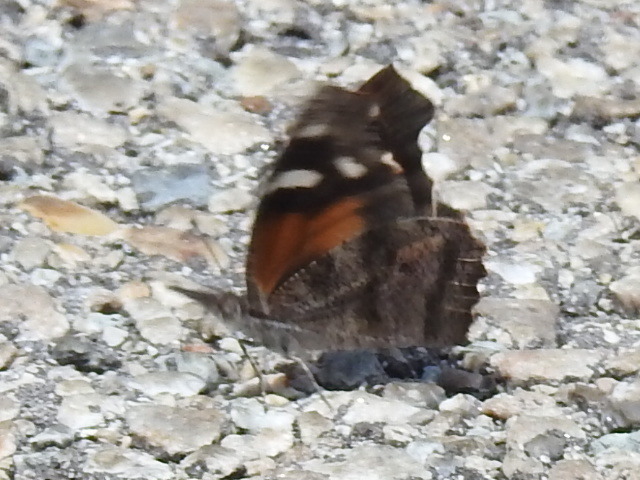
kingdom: Animalia
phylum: Arthropoda
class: Insecta
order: Lepidoptera
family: Nymphalidae
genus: Libytheana
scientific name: Libytheana carinenta
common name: American snout
